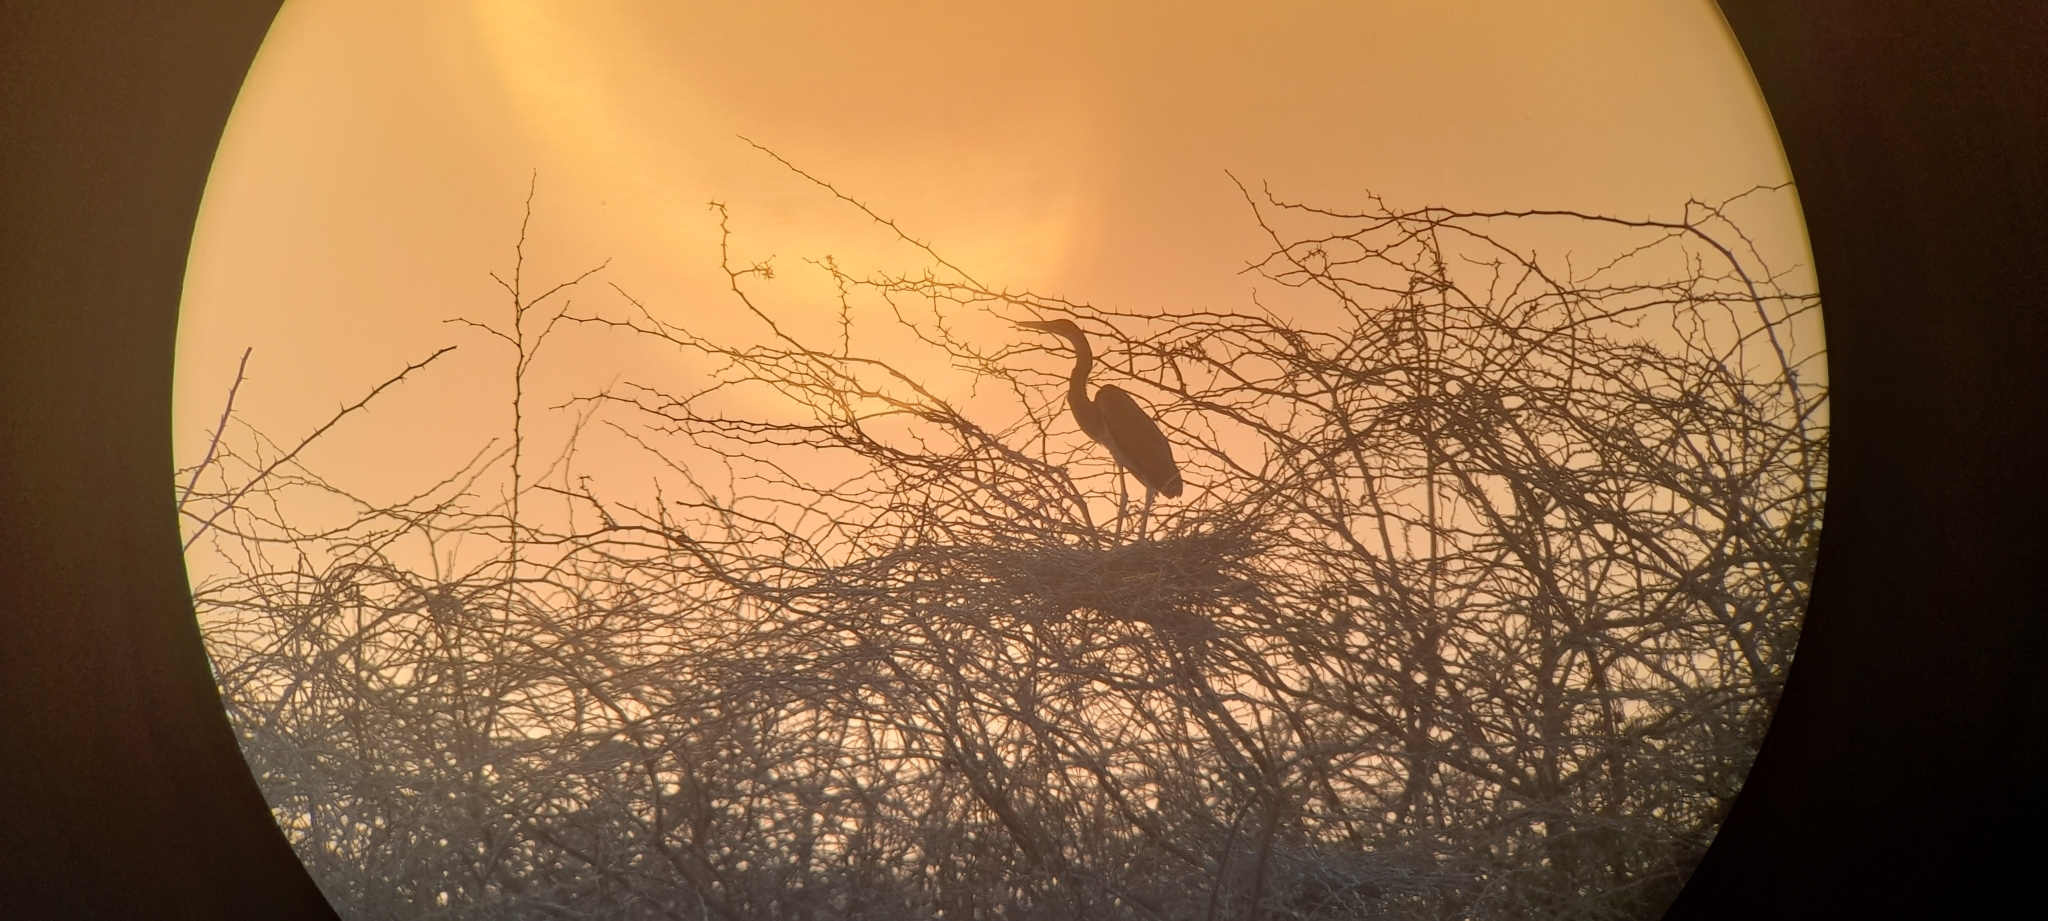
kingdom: Animalia
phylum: Chordata
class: Aves
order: Pelecaniformes
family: Ardeidae
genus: Ardea
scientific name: Ardea cinerea
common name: Grey heron
